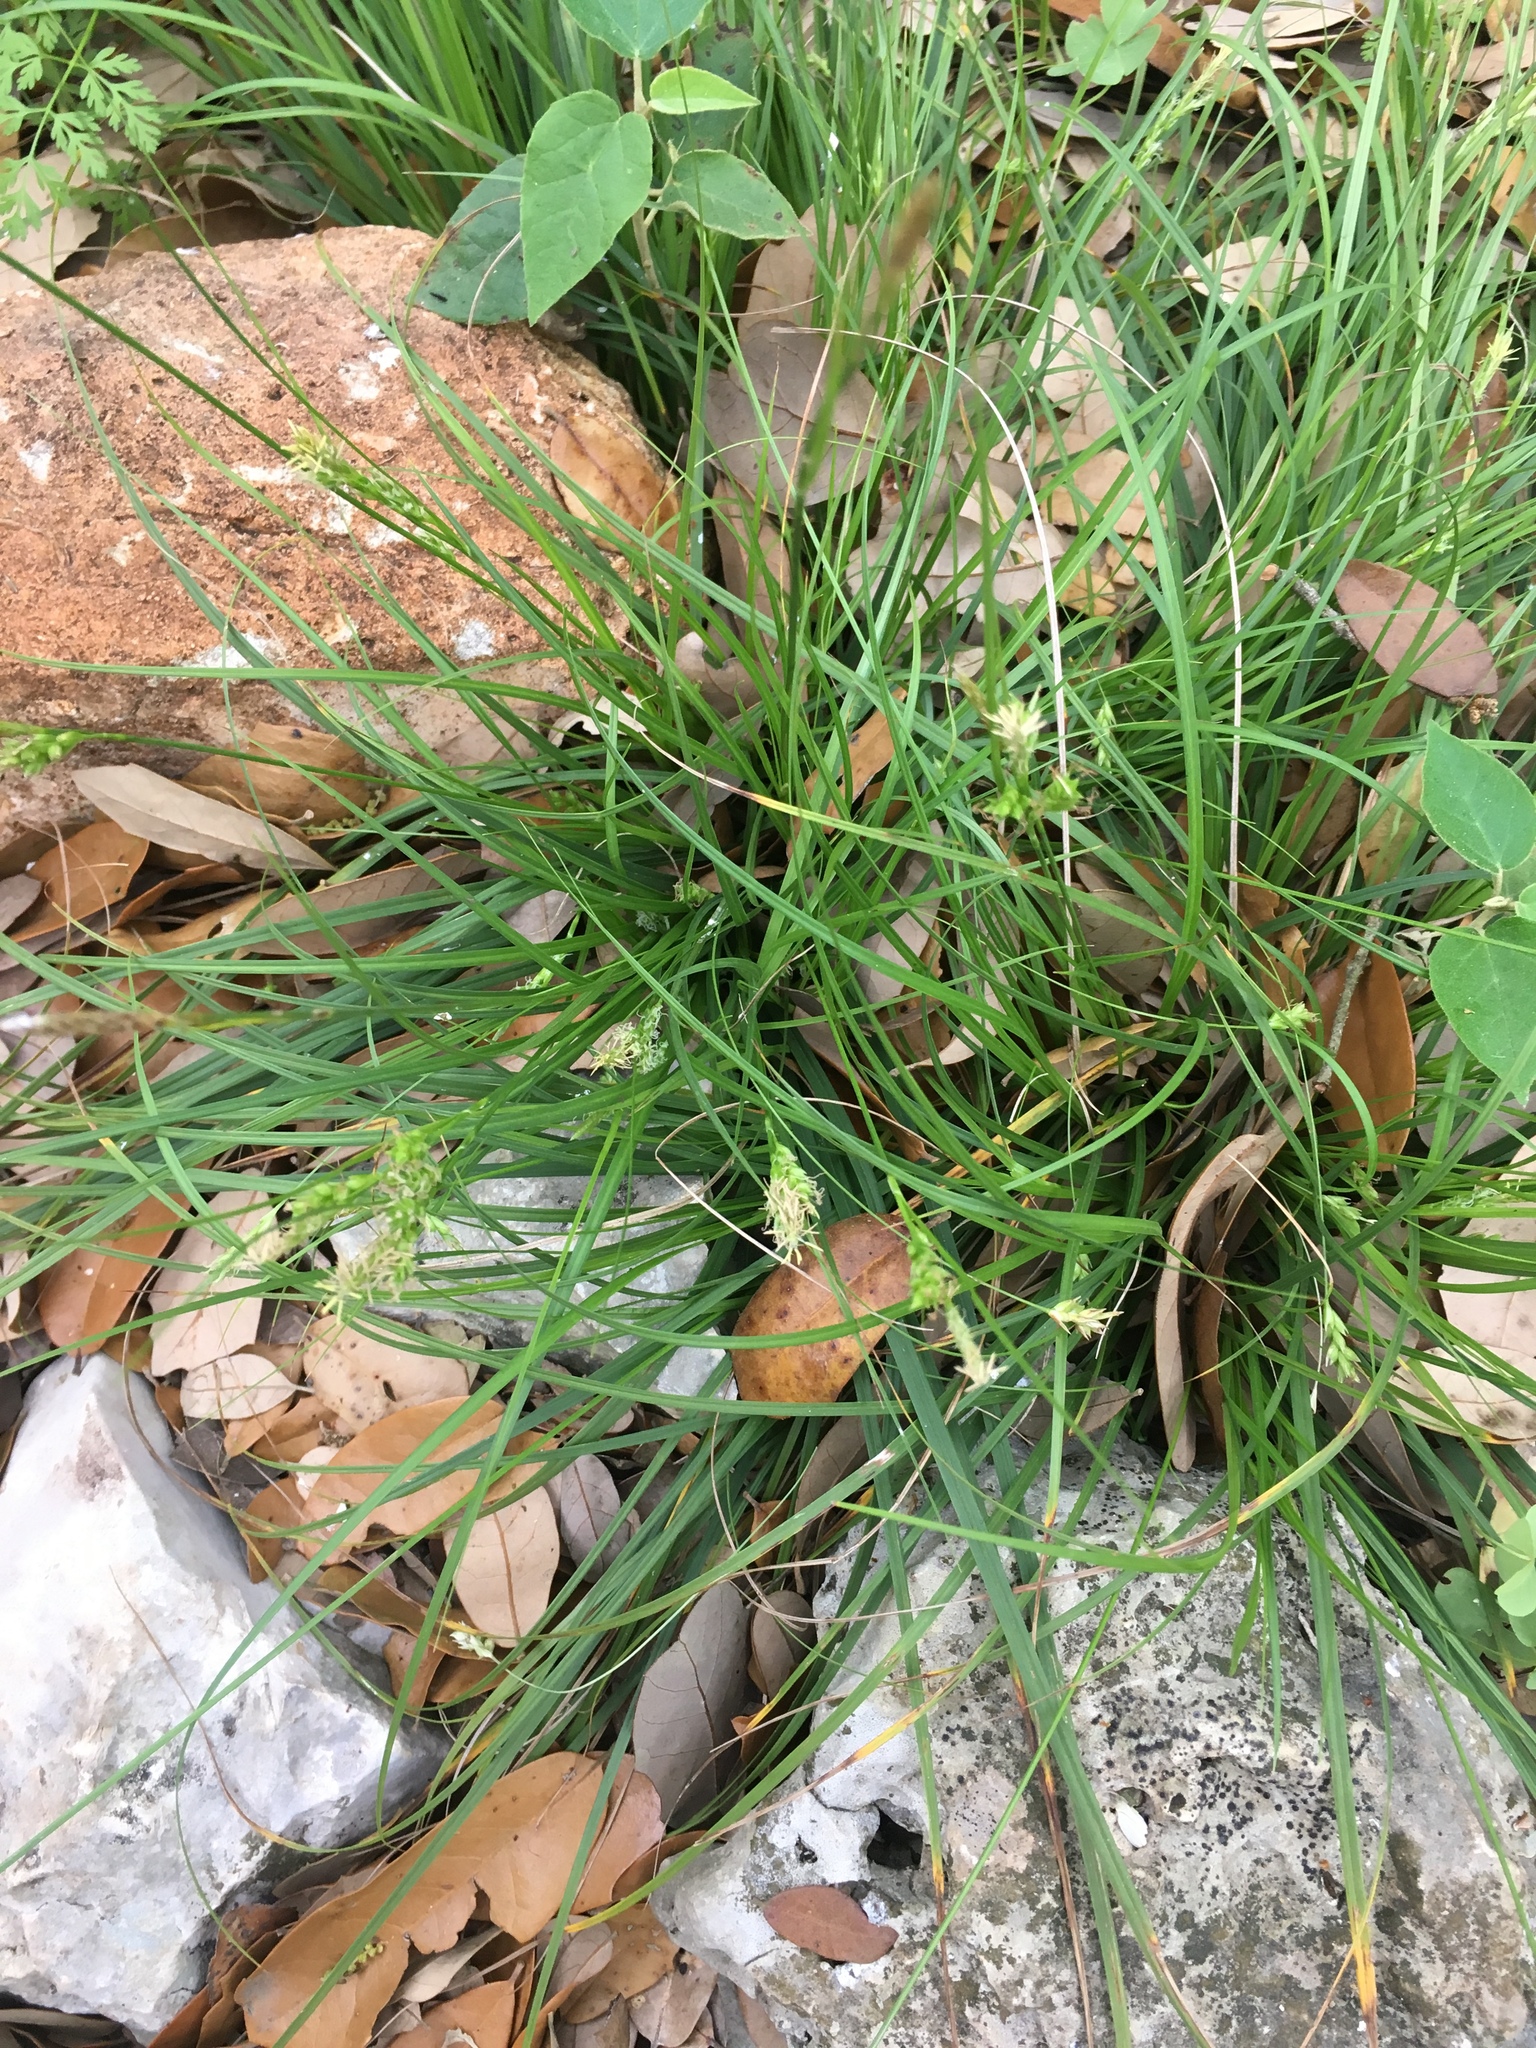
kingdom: Plantae
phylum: Tracheophyta
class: Liliopsida
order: Poales
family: Cyperaceae
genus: Carex
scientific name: Carex planostachys
